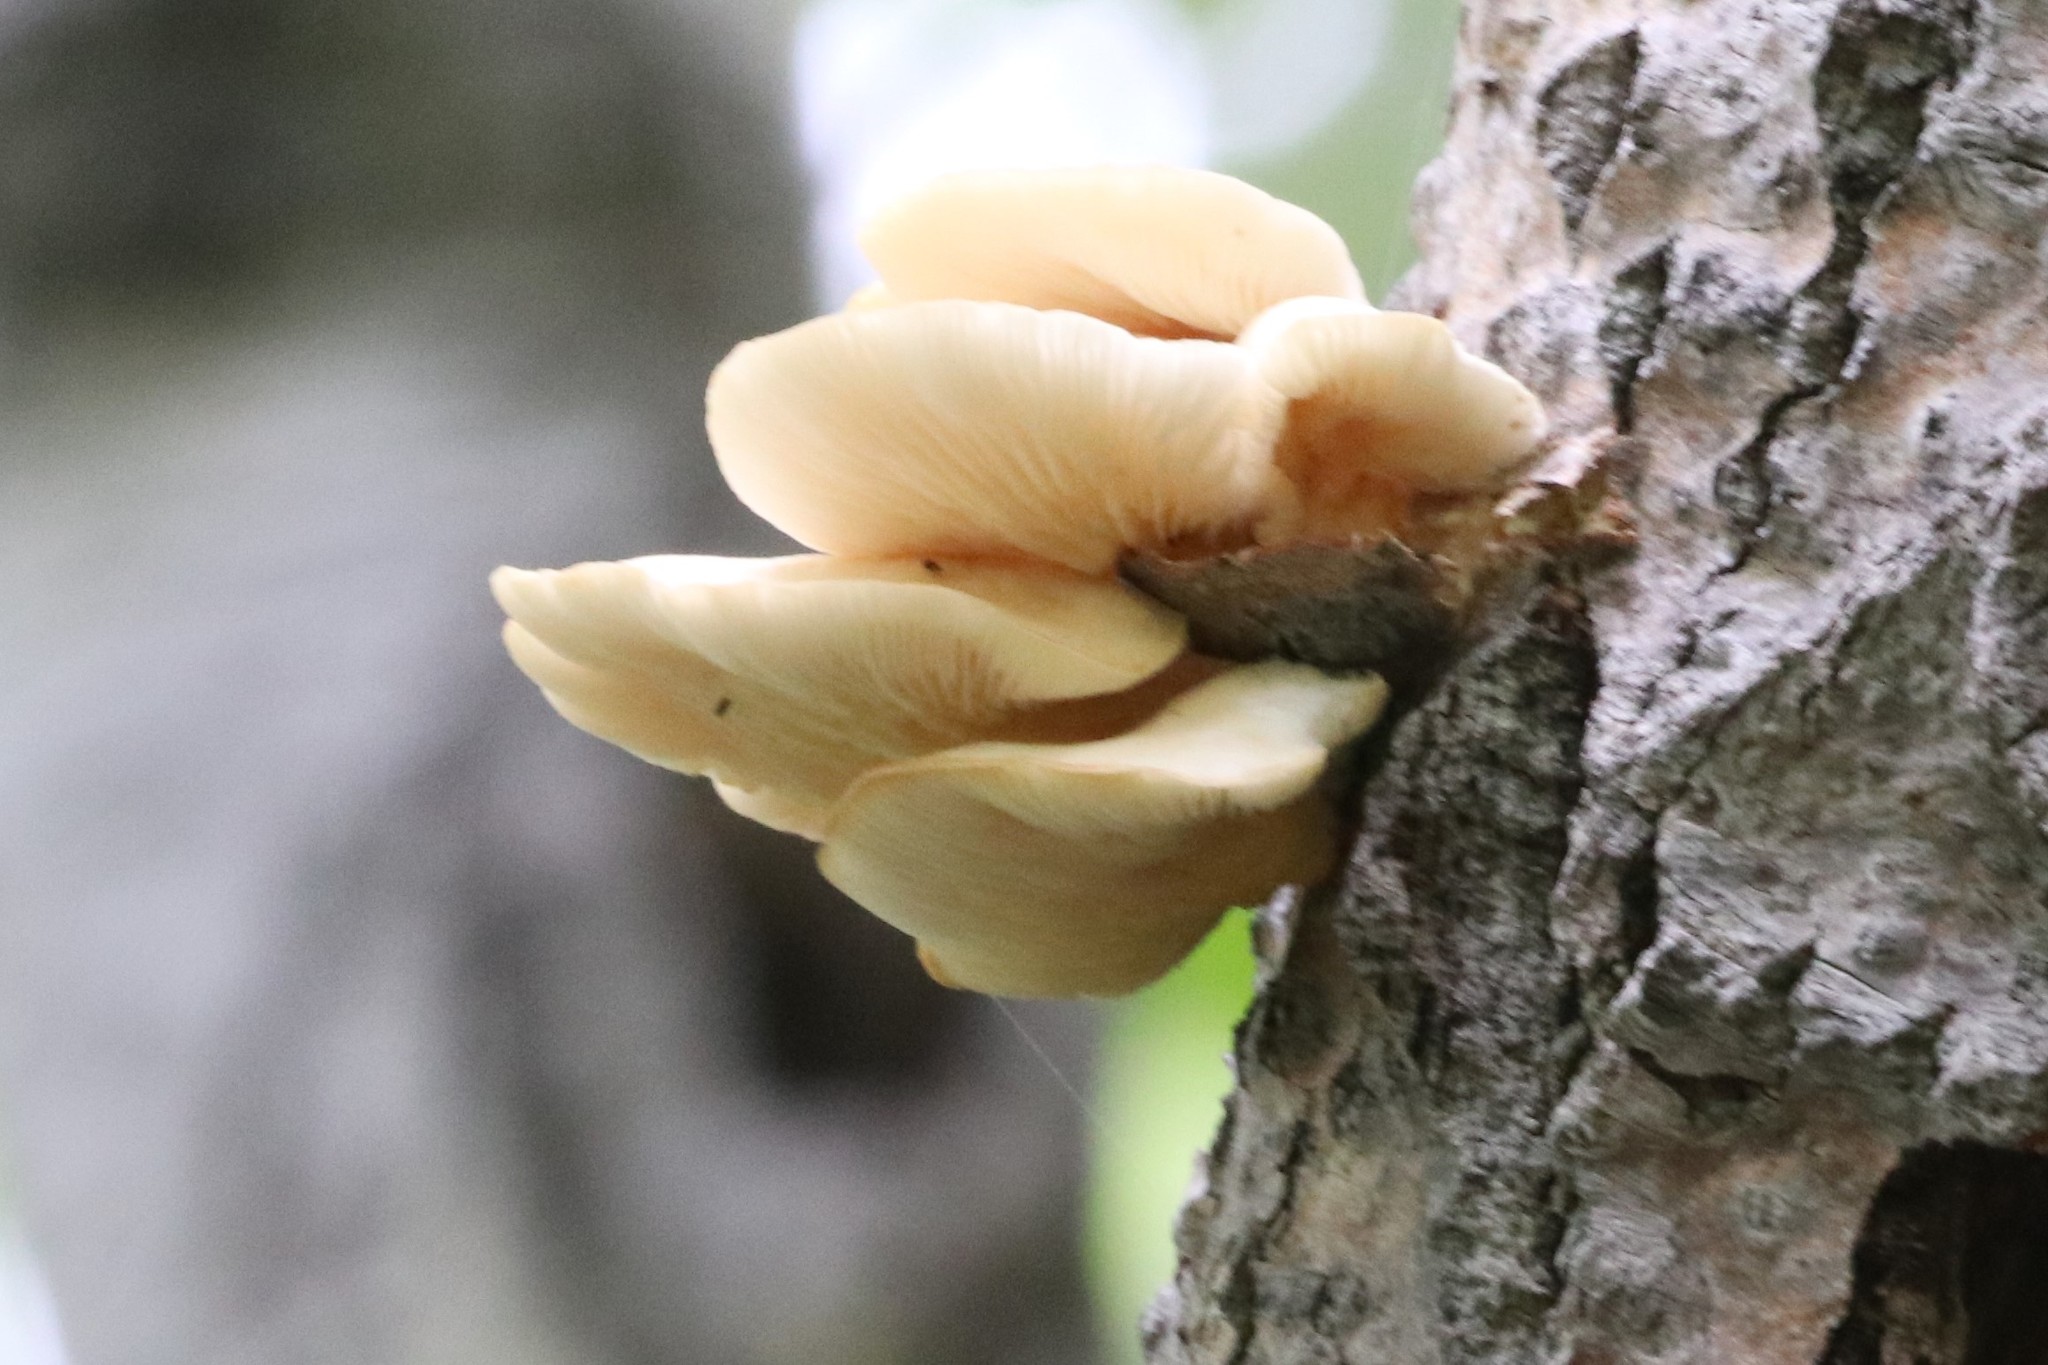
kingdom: Fungi
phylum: Basidiomycota
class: Agaricomycetes
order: Agaricales
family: Pleurotaceae
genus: Pleurotus
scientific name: Pleurotus populinus
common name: Aspen oyster mushroom
